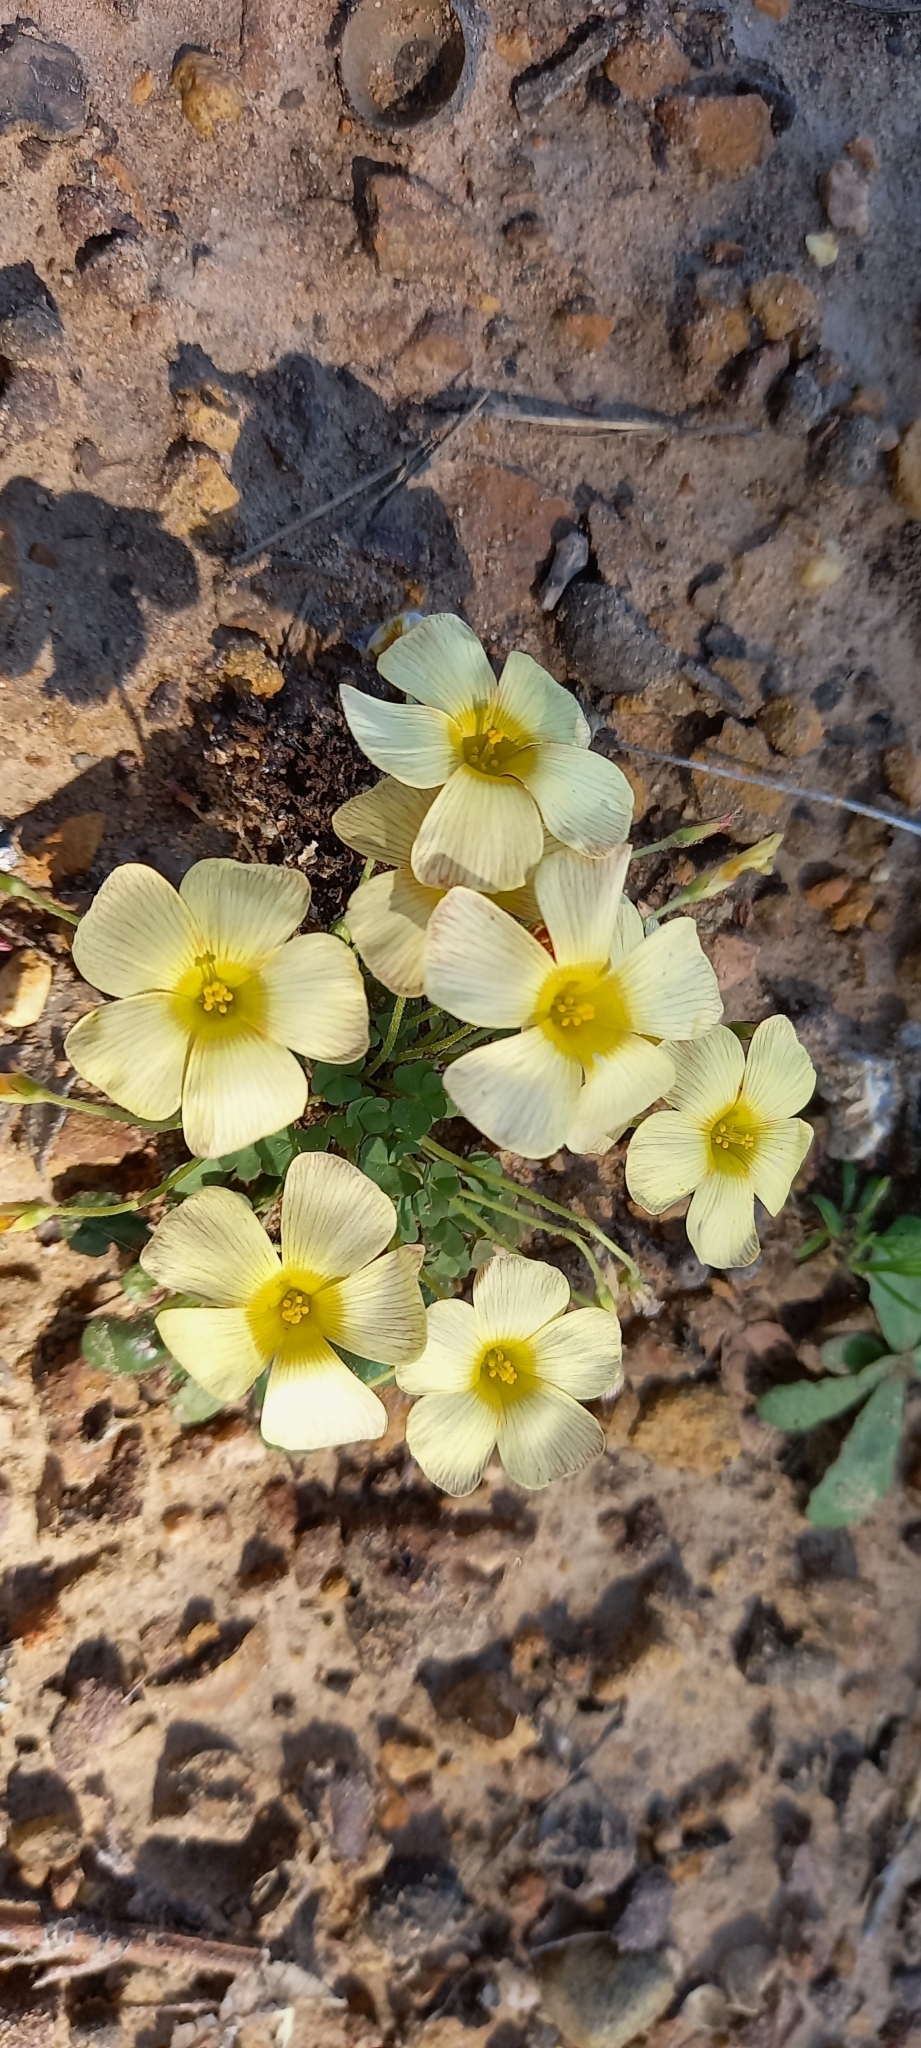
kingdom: Plantae
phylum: Tracheophyta
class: Magnoliopsida
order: Oxalidales
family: Oxalidaceae
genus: Oxalis
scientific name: Oxalis obtusa
